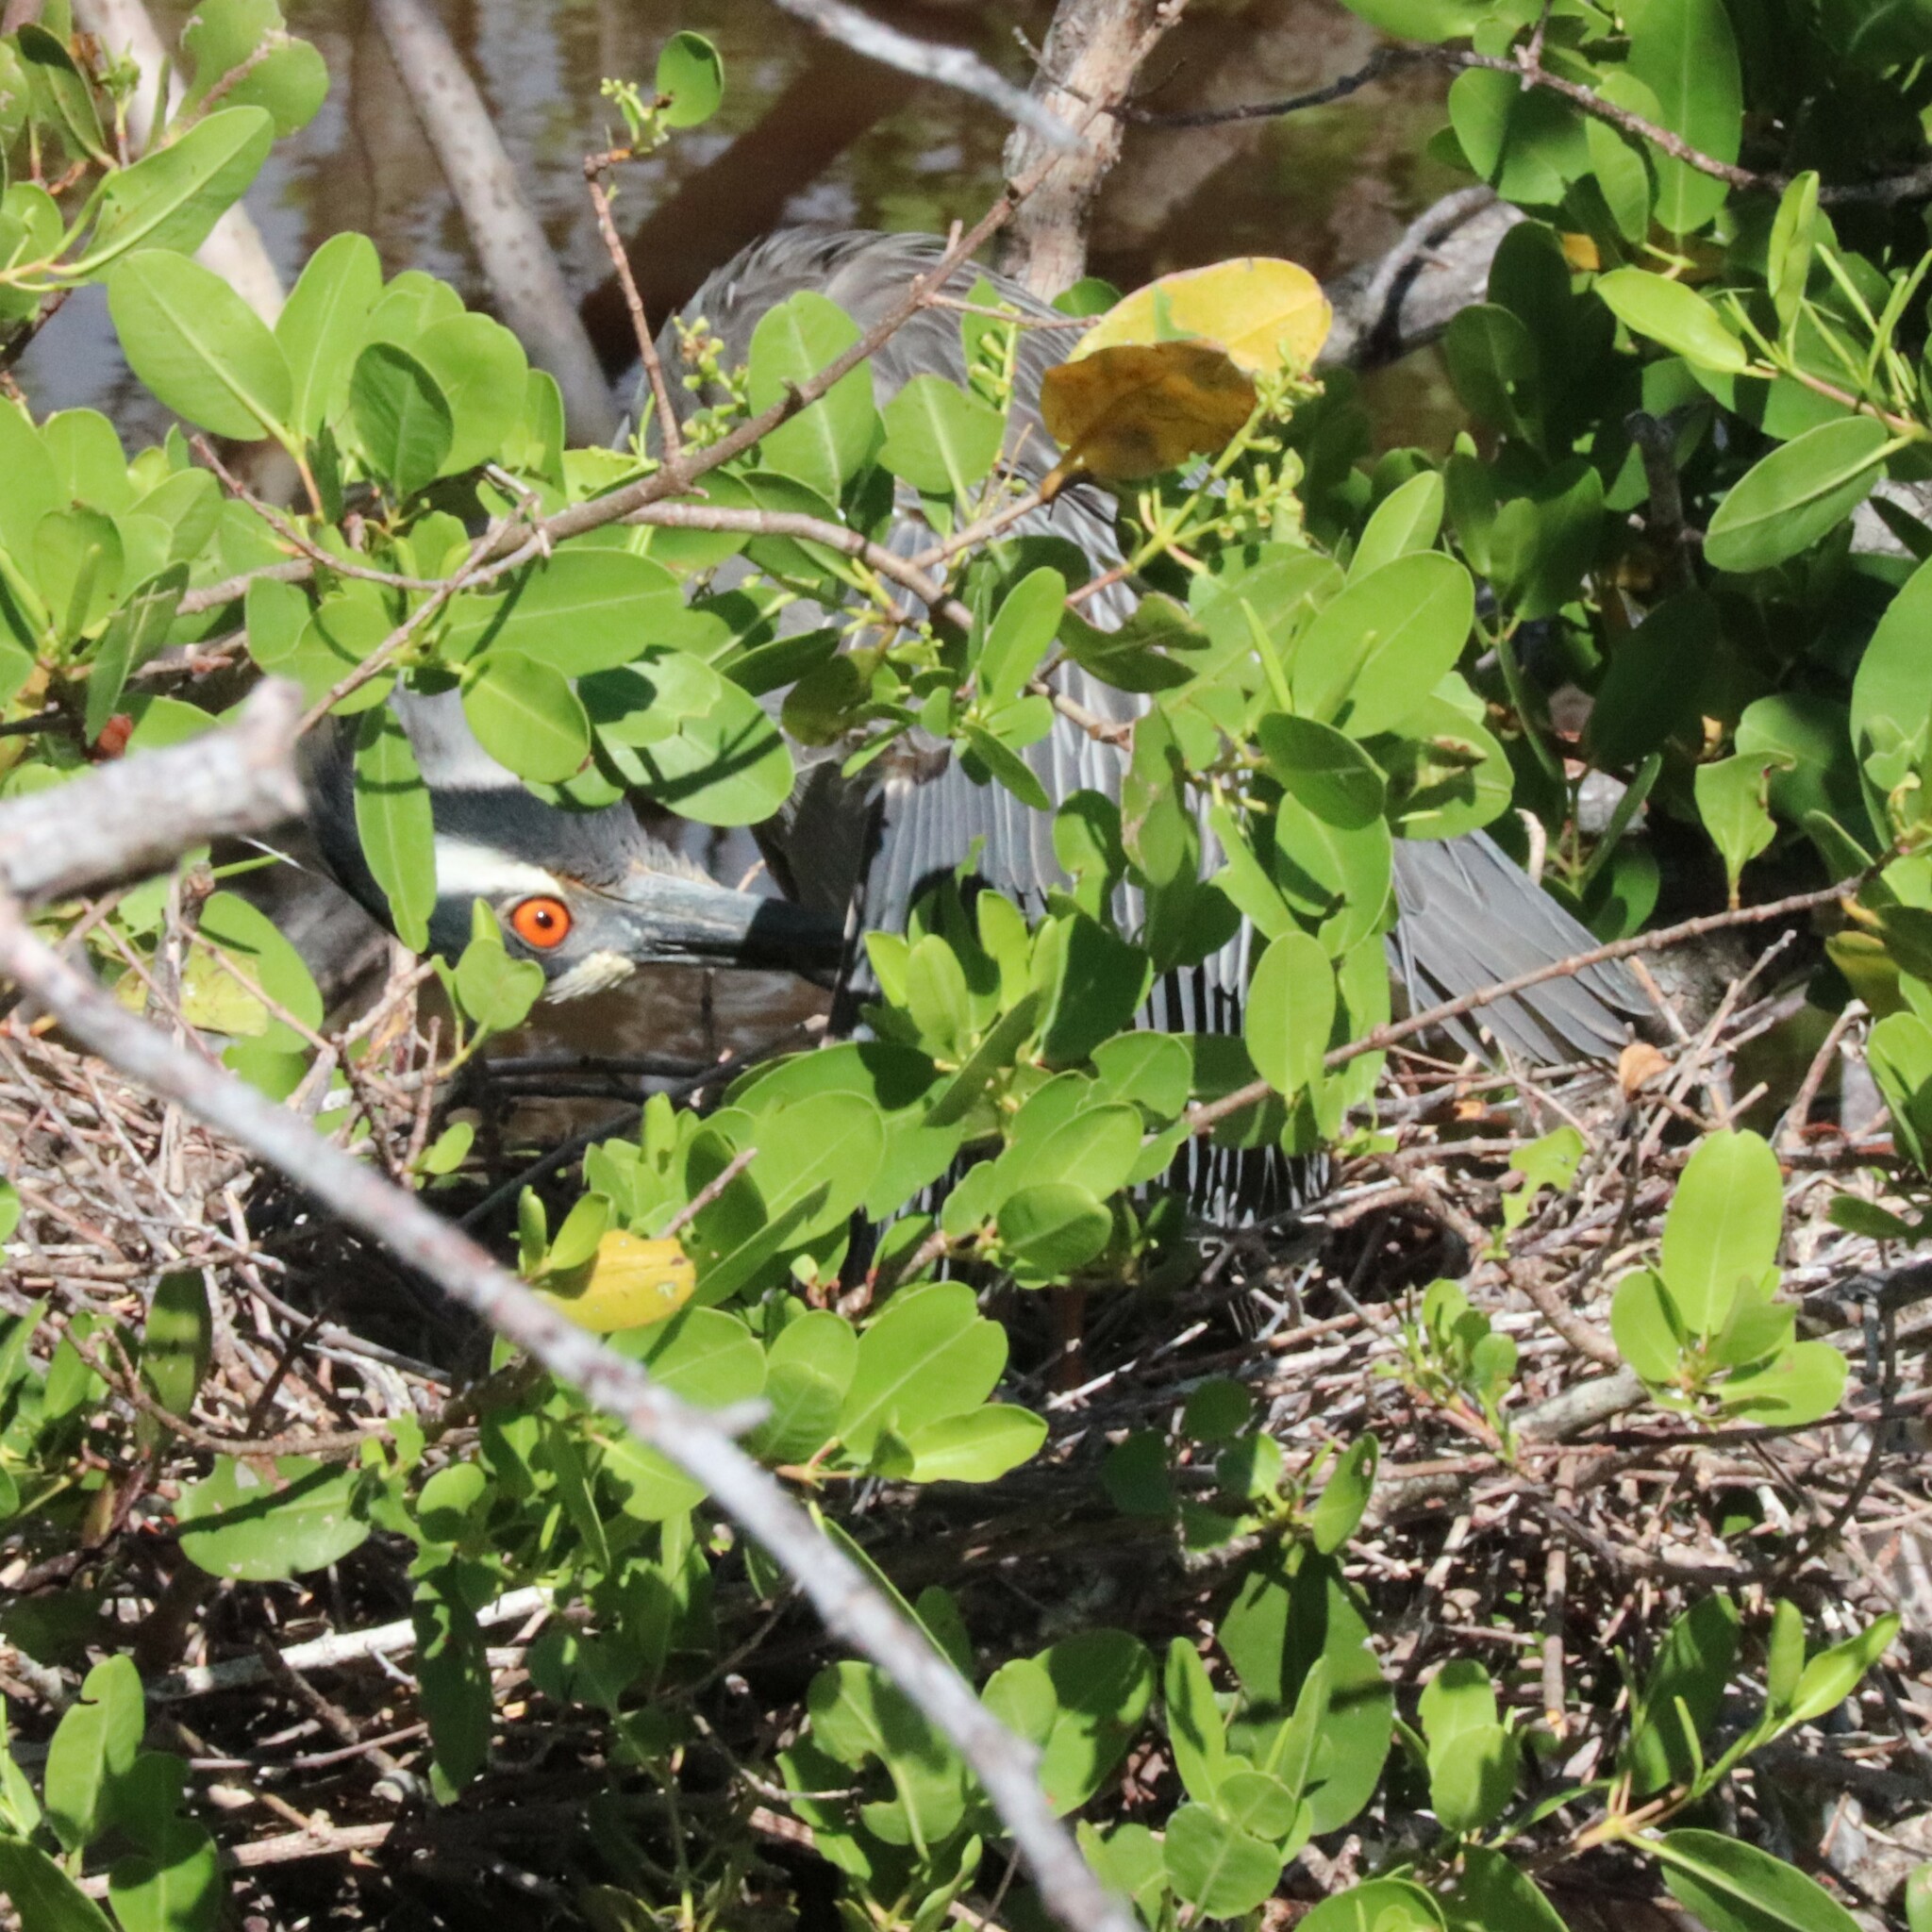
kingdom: Animalia
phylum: Chordata
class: Aves
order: Pelecaniformes
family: Ardeidae
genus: Nyctanassa
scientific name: Nyctanassa violacea
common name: Yellow-crowned night heron
